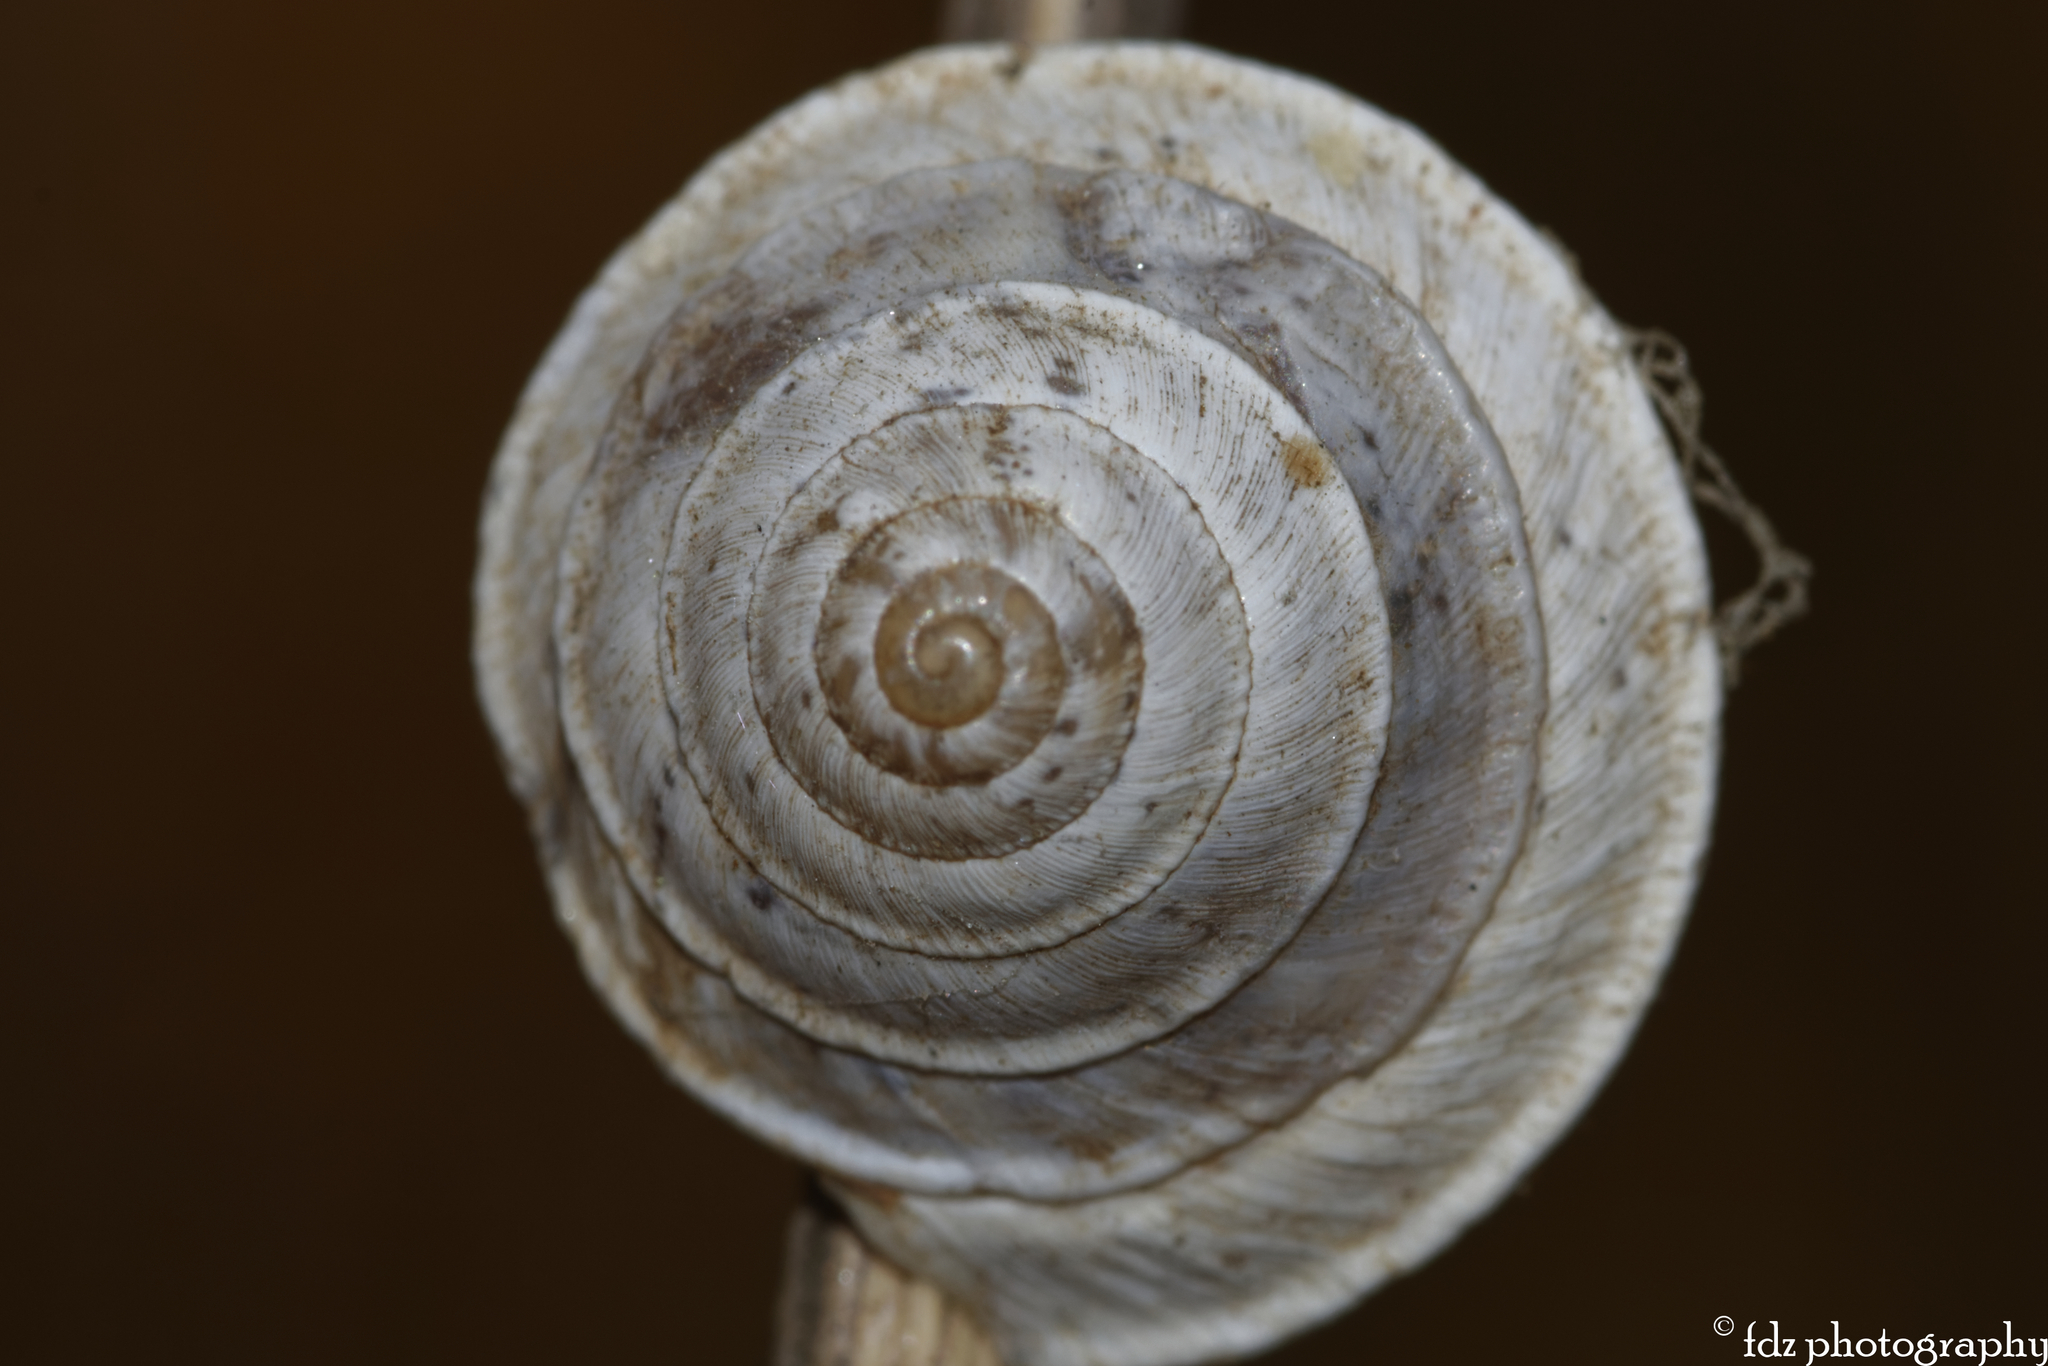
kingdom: Animalia
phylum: Mollusca
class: Gastropoda
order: Stylommatophora
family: Geomitridae
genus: Trochoidea
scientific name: Trochoidea elegans
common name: Elegant helicellid
